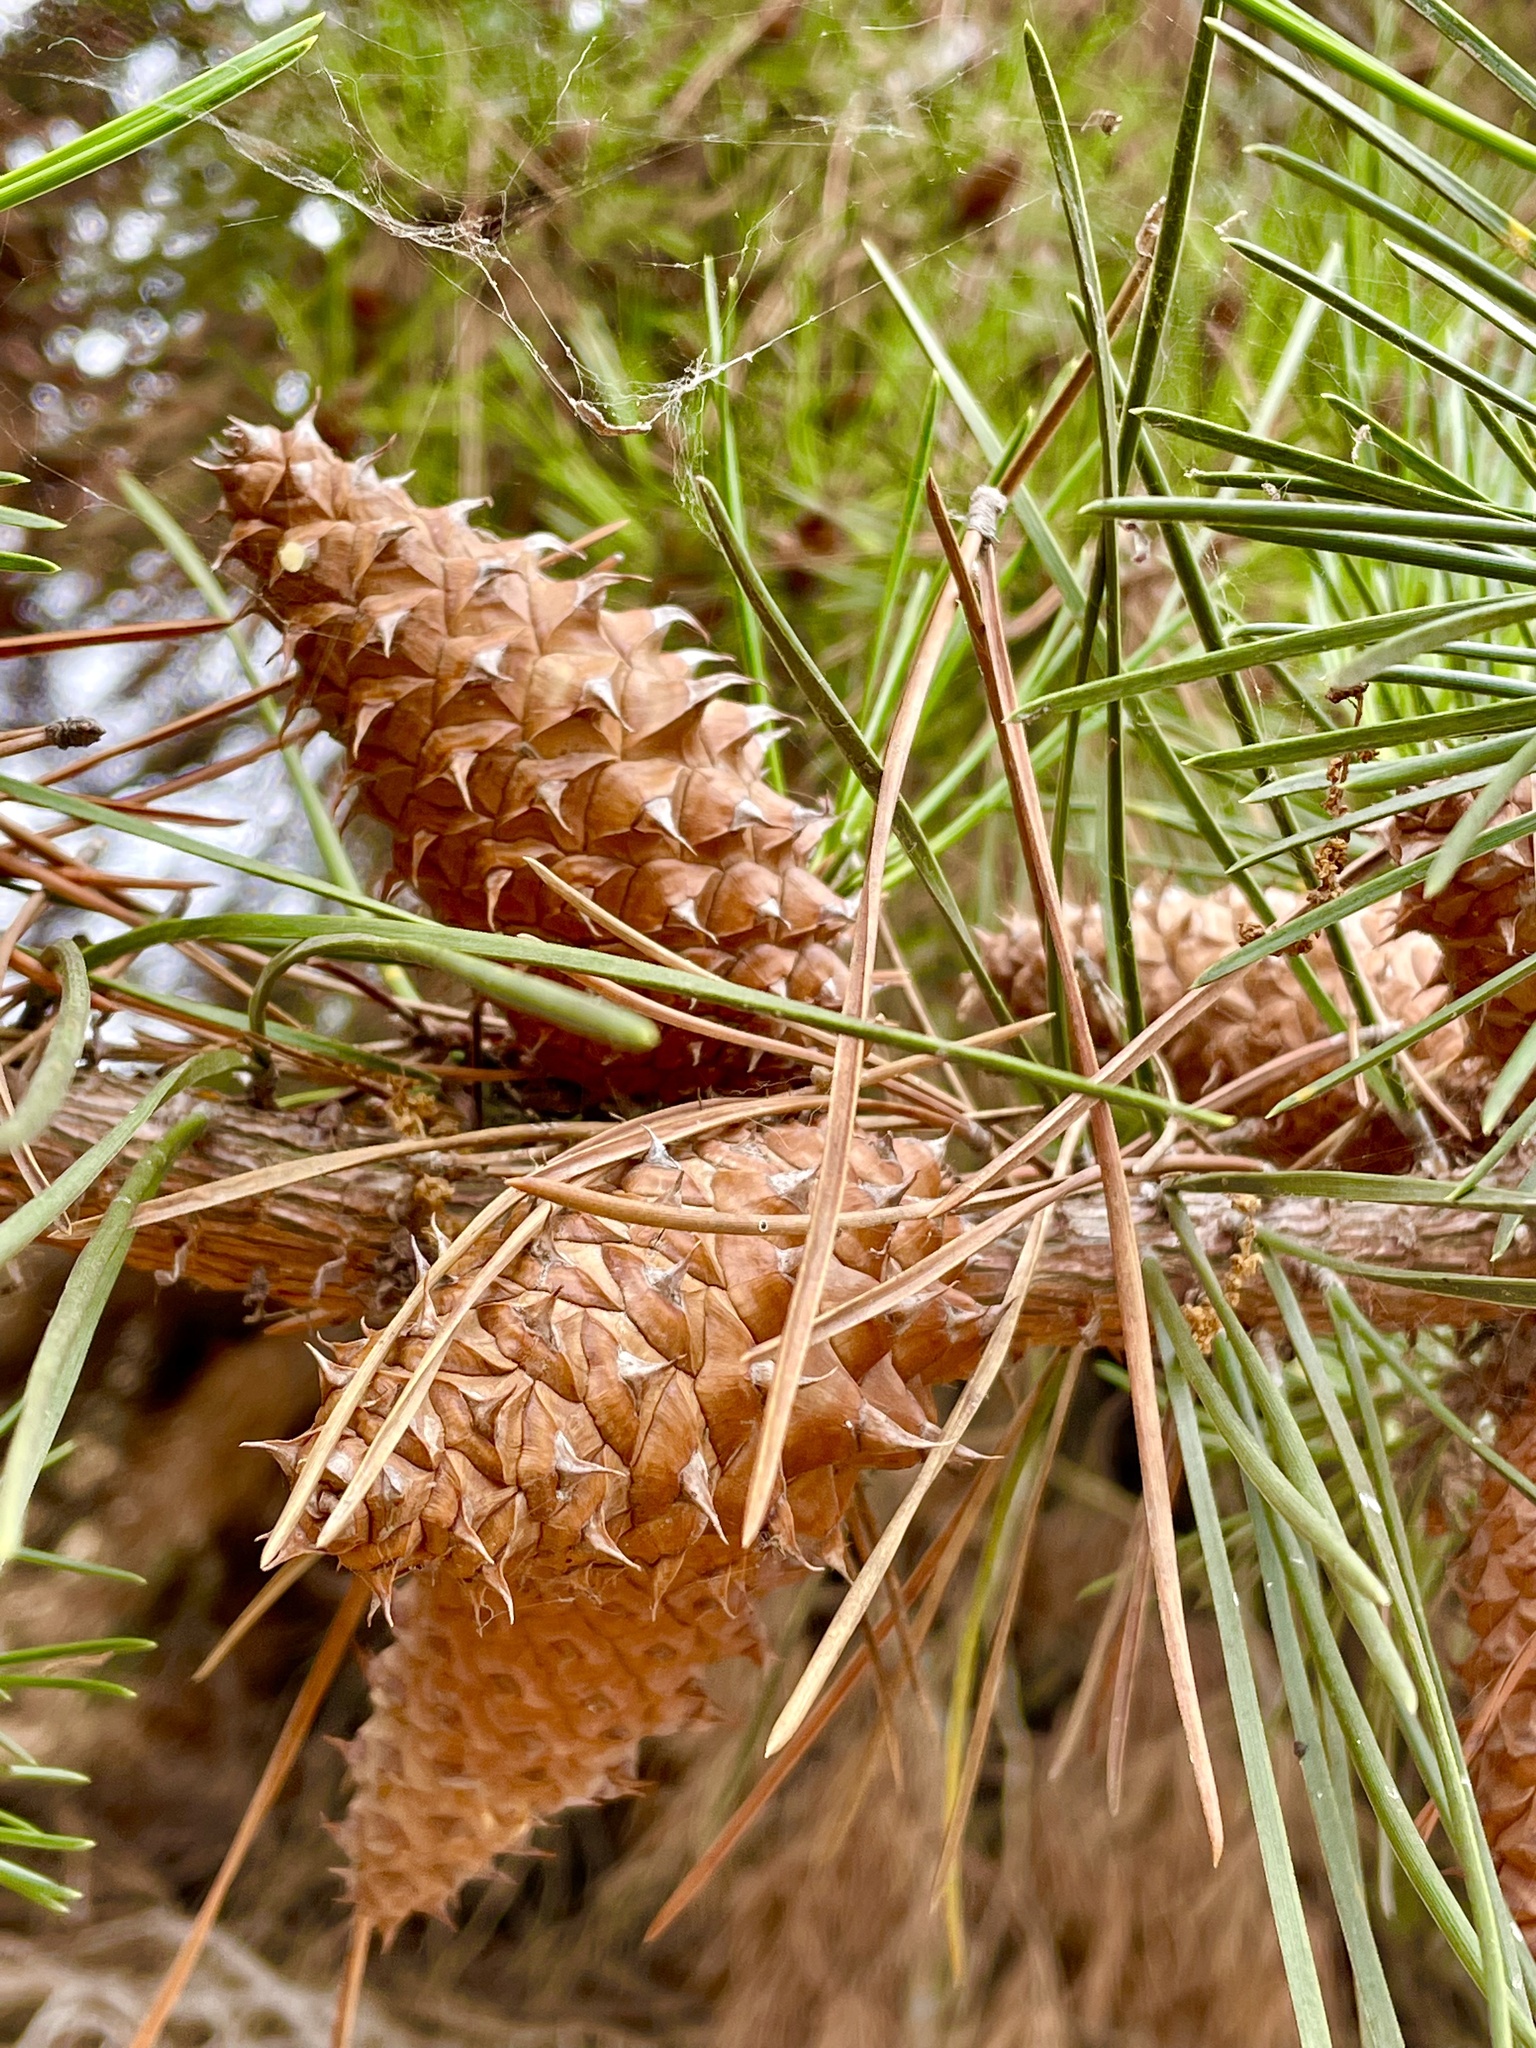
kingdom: Plantae
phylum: Tracheophyta
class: Pinopsida
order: Pinales
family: Pinaceae
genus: Pinus
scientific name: Pinus muricata
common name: Bishop pine
